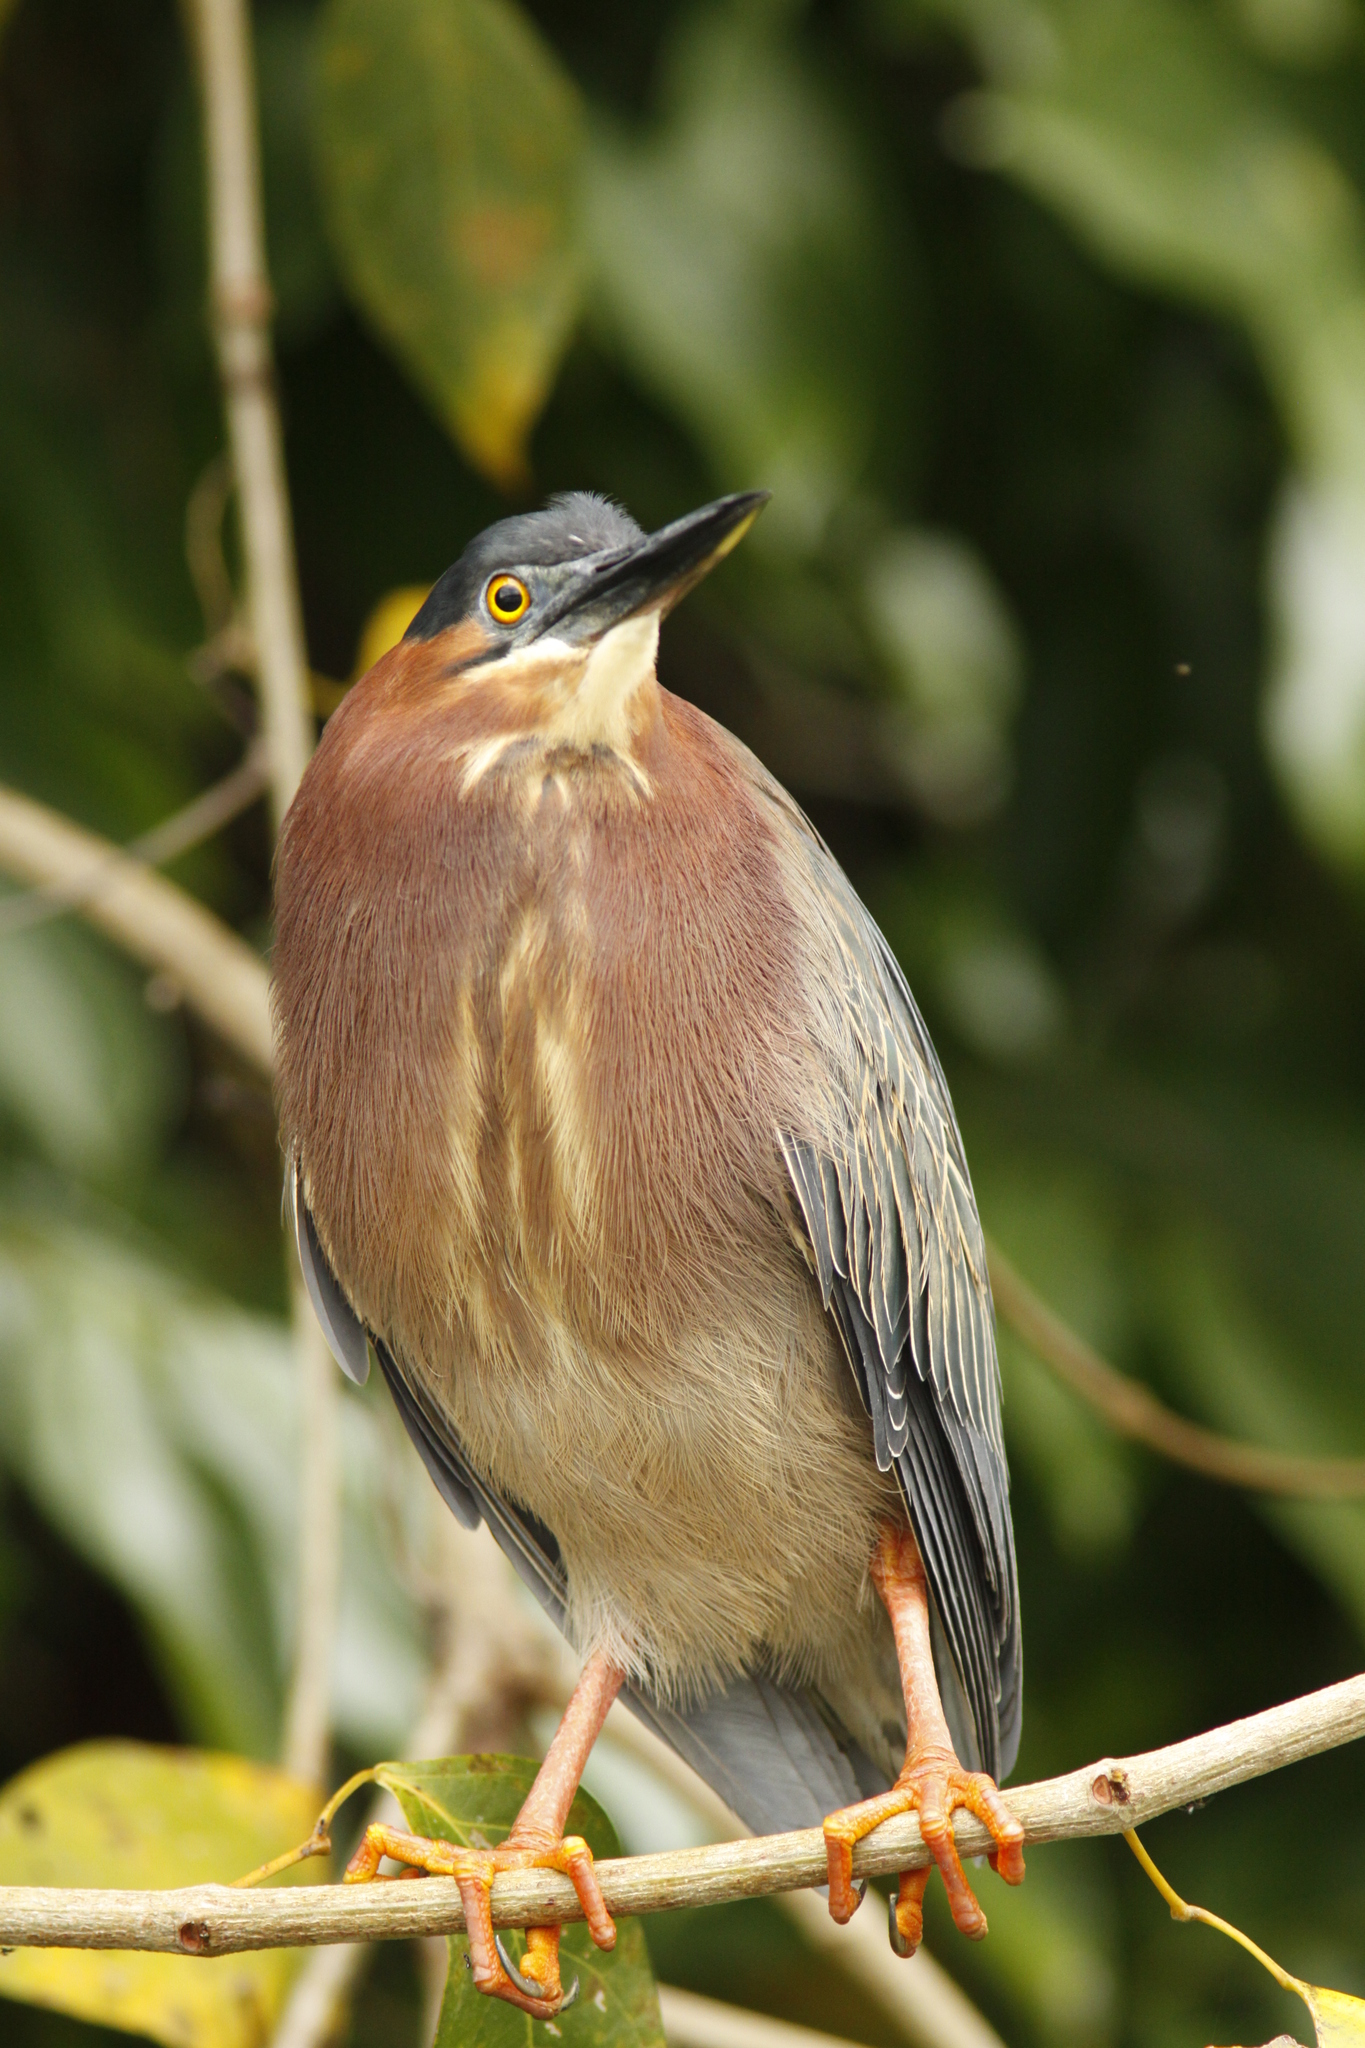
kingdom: Animalia
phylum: Chordata
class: Aves
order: Pelecaniformes
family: Ardeidae
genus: Butorides
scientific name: Butorides virescens
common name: Green heron
